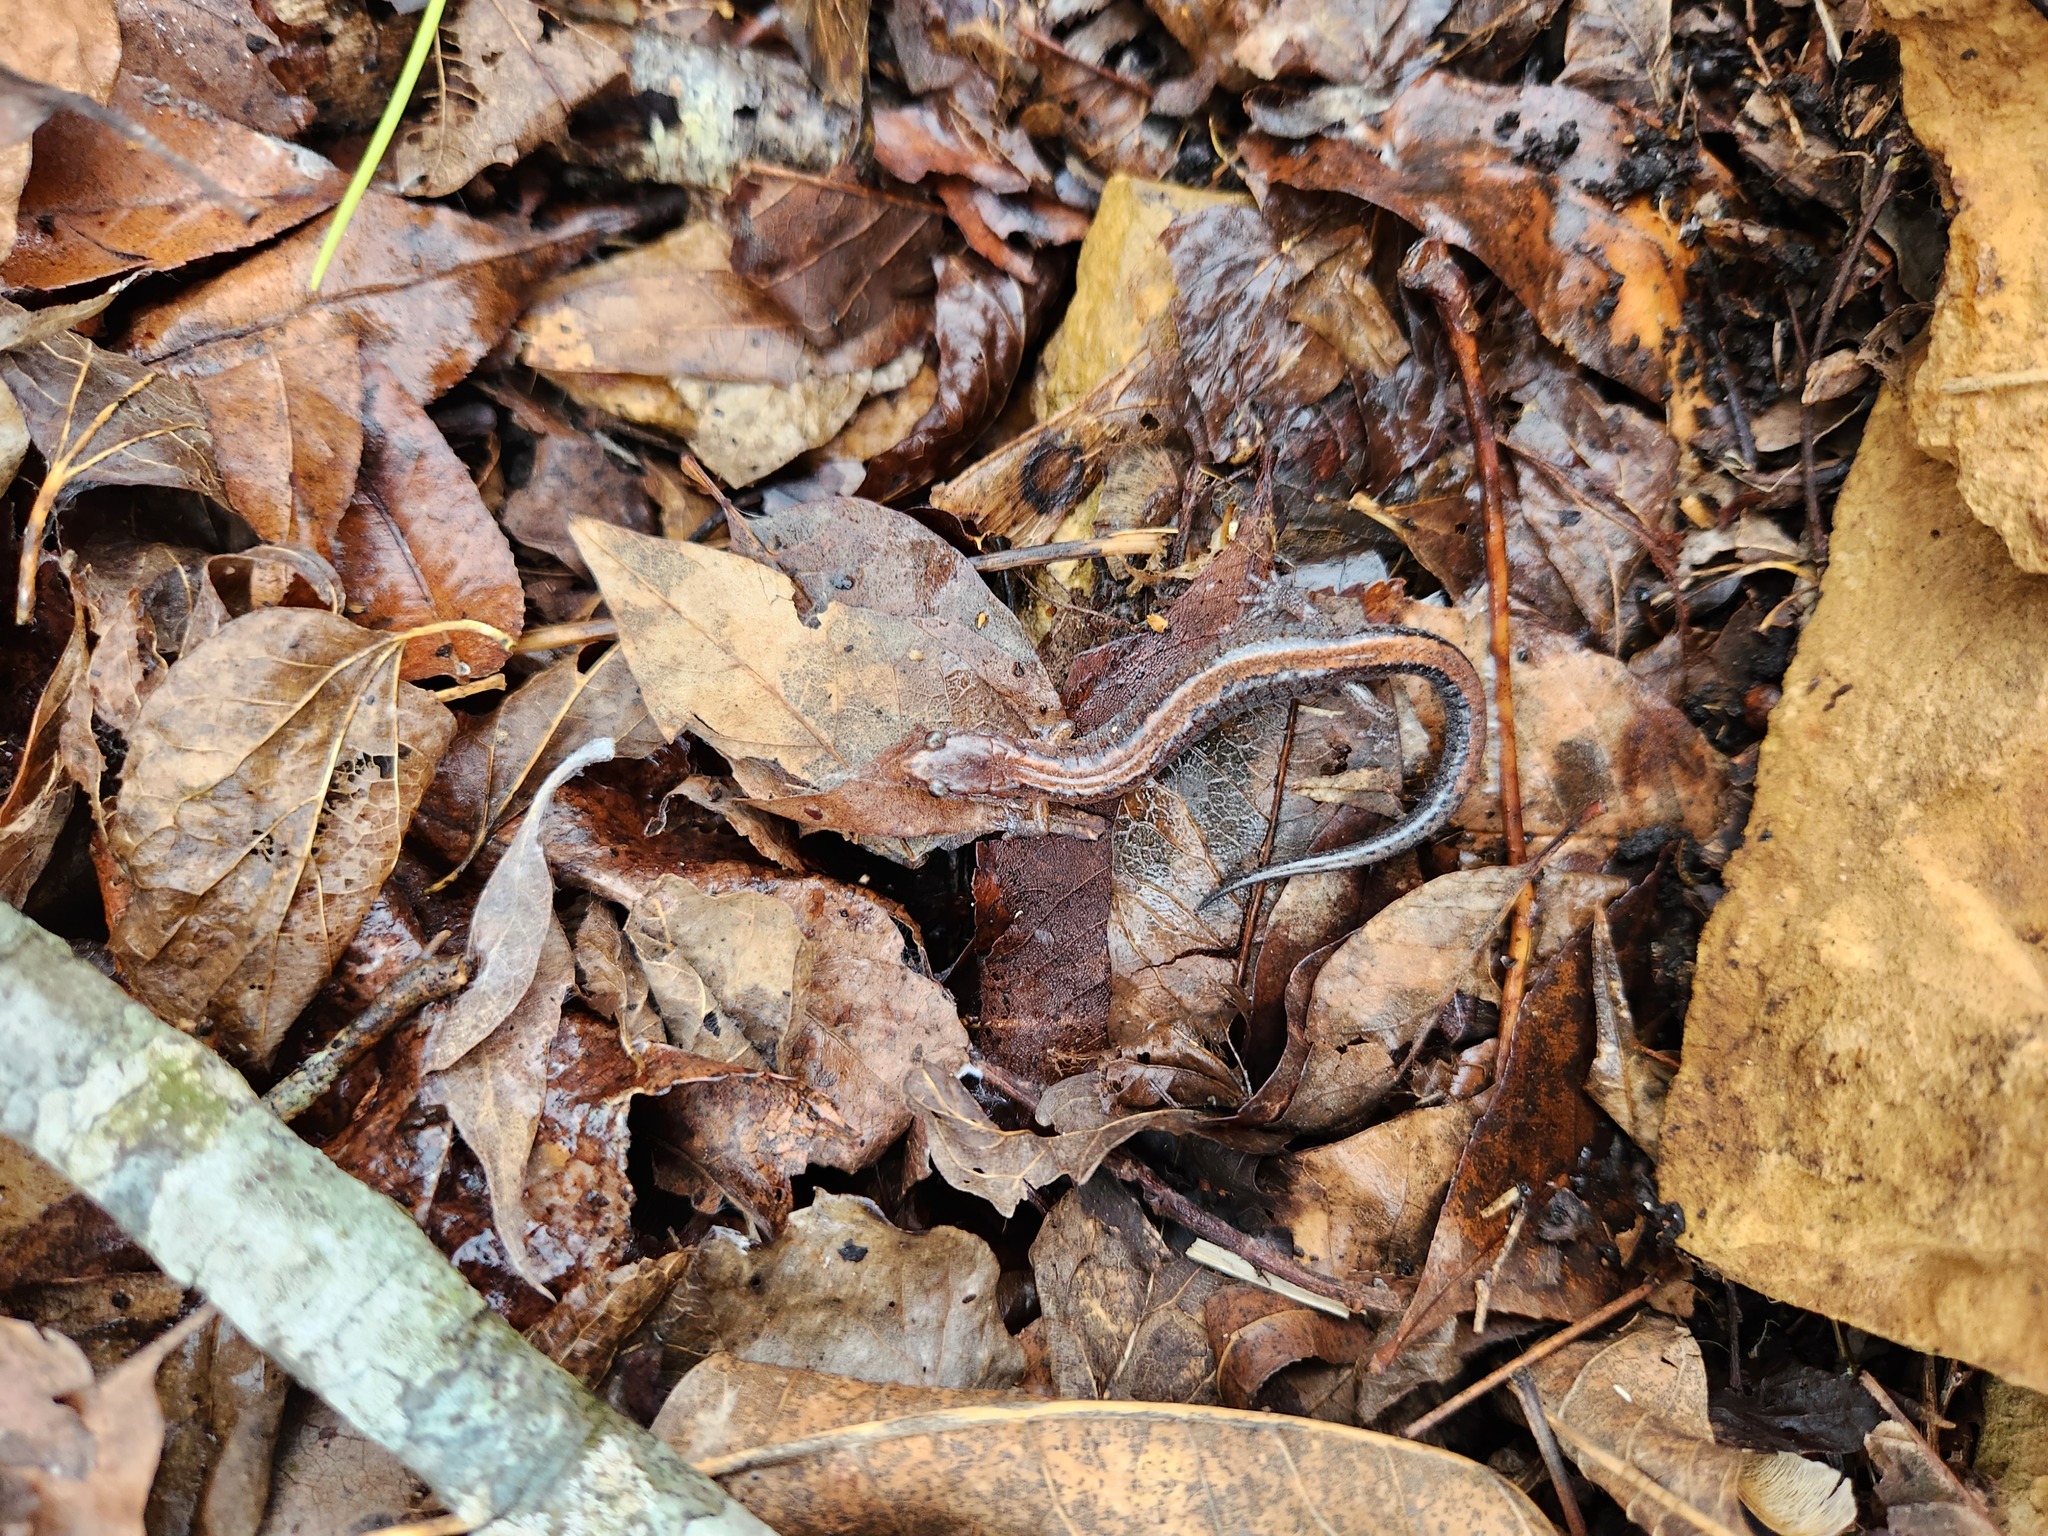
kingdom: Animalia
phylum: Chordata
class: Amphibia
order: Caudata
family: Plethodontidae
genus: Plethodon
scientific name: Plethodon dorsalis
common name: Northern zigzag salamander
